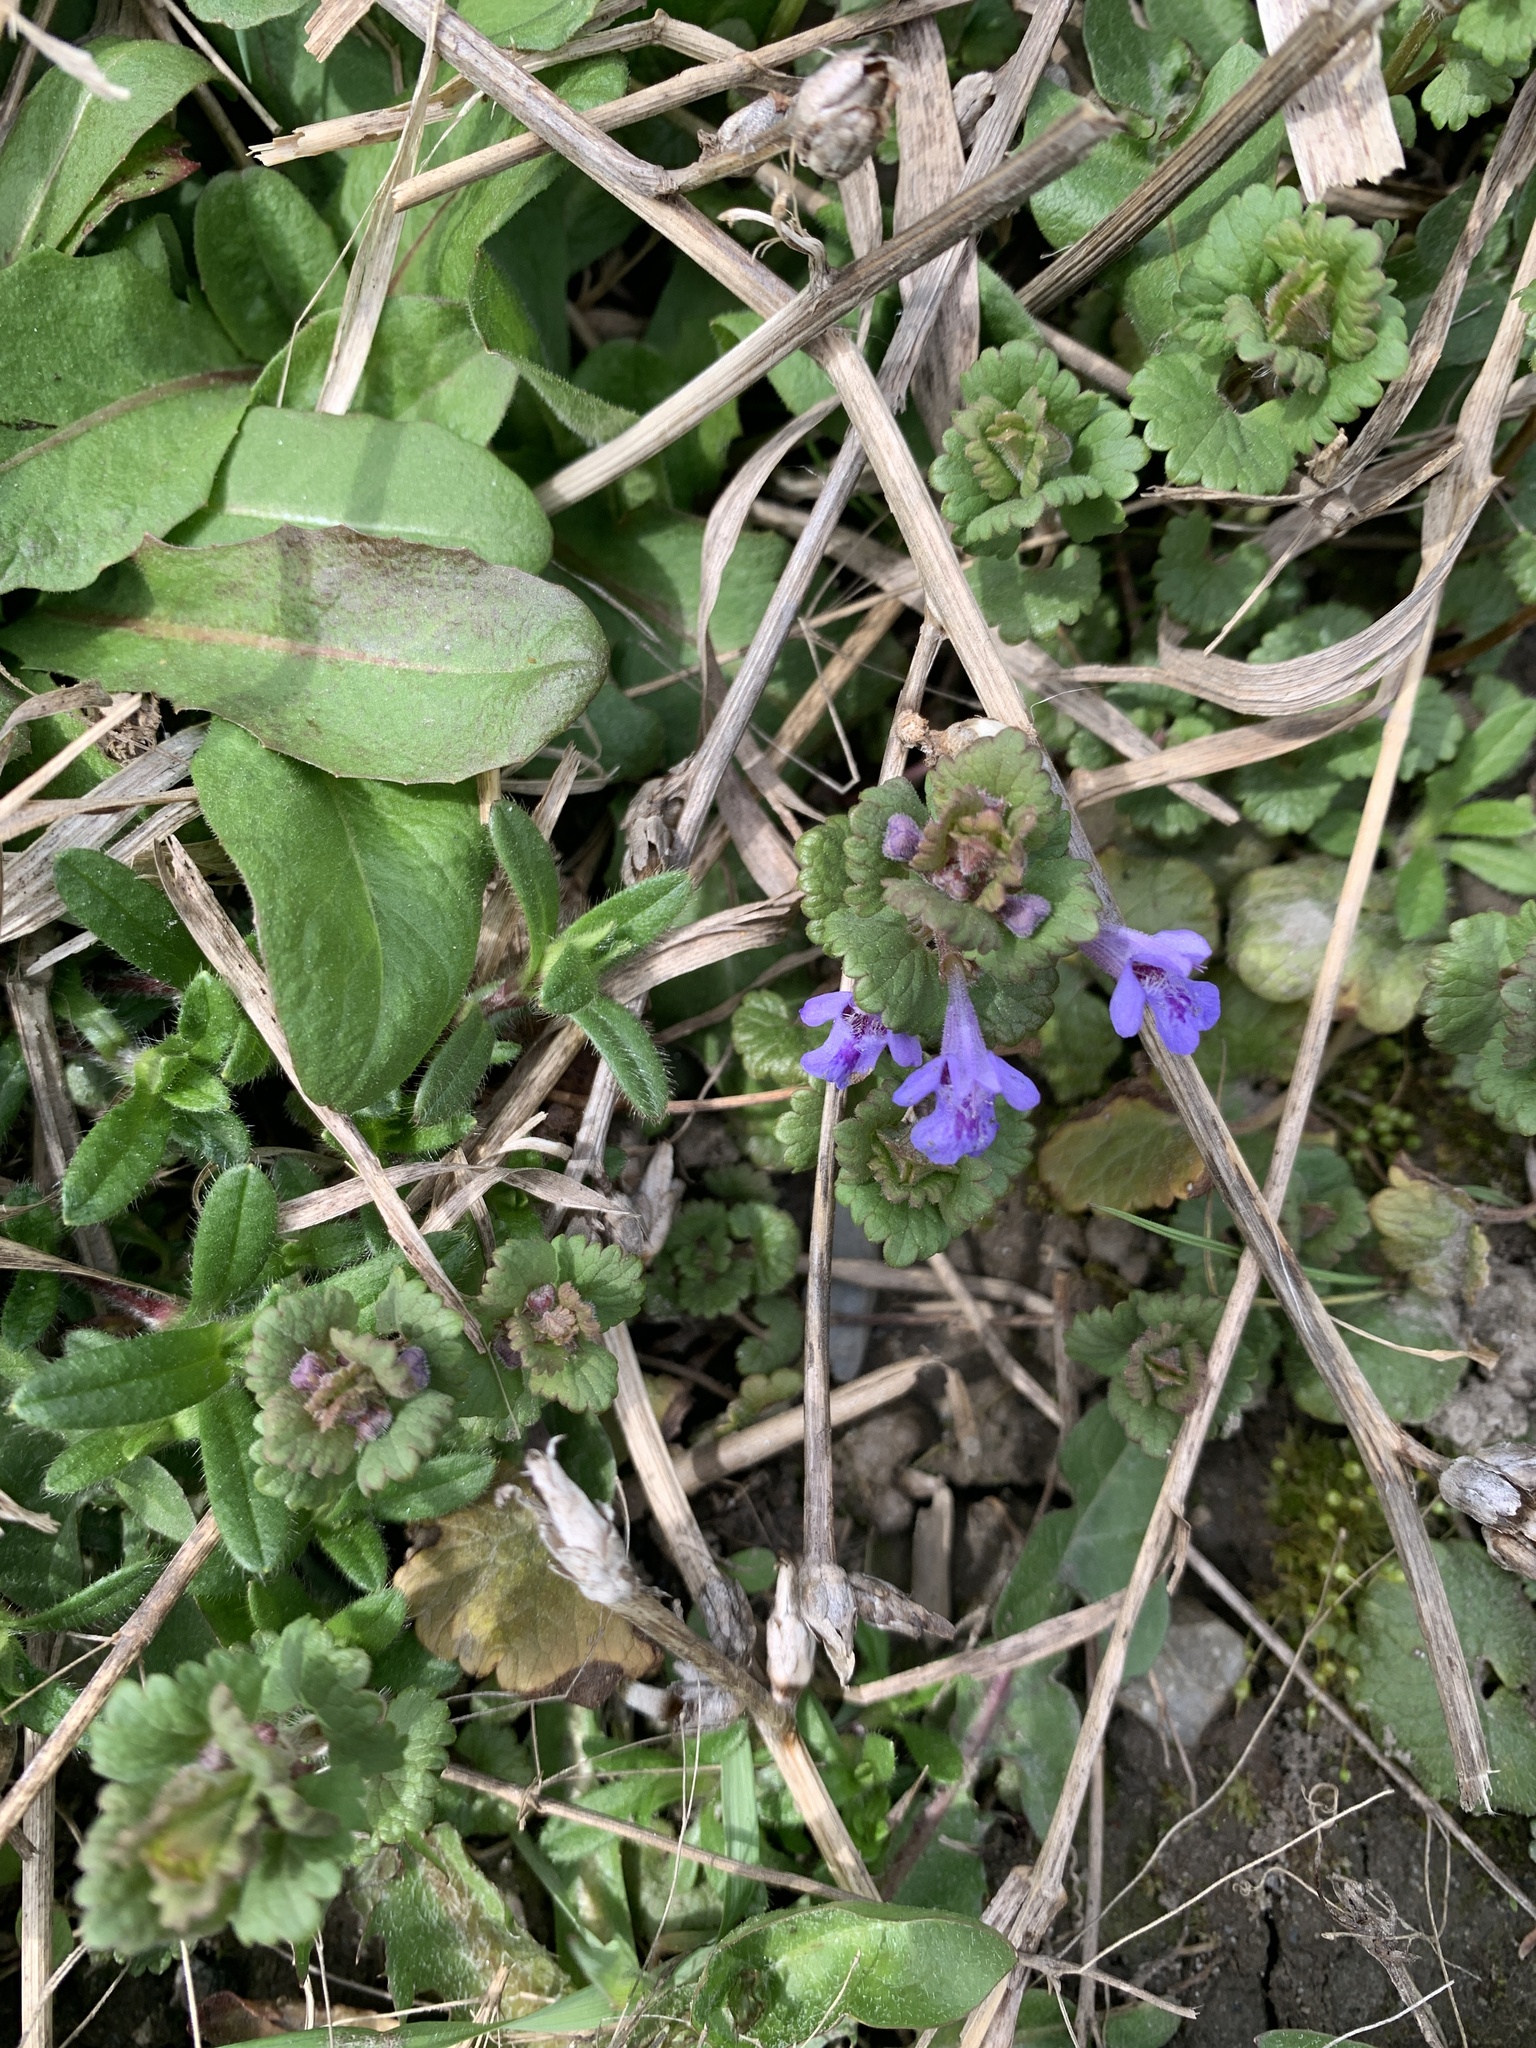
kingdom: Plantae
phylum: Tracheophyta
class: Magnoliopsida
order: Lamiales
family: Lamiaceae
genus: Glechoma
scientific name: Glechoma hederacea
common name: Ground ivy
